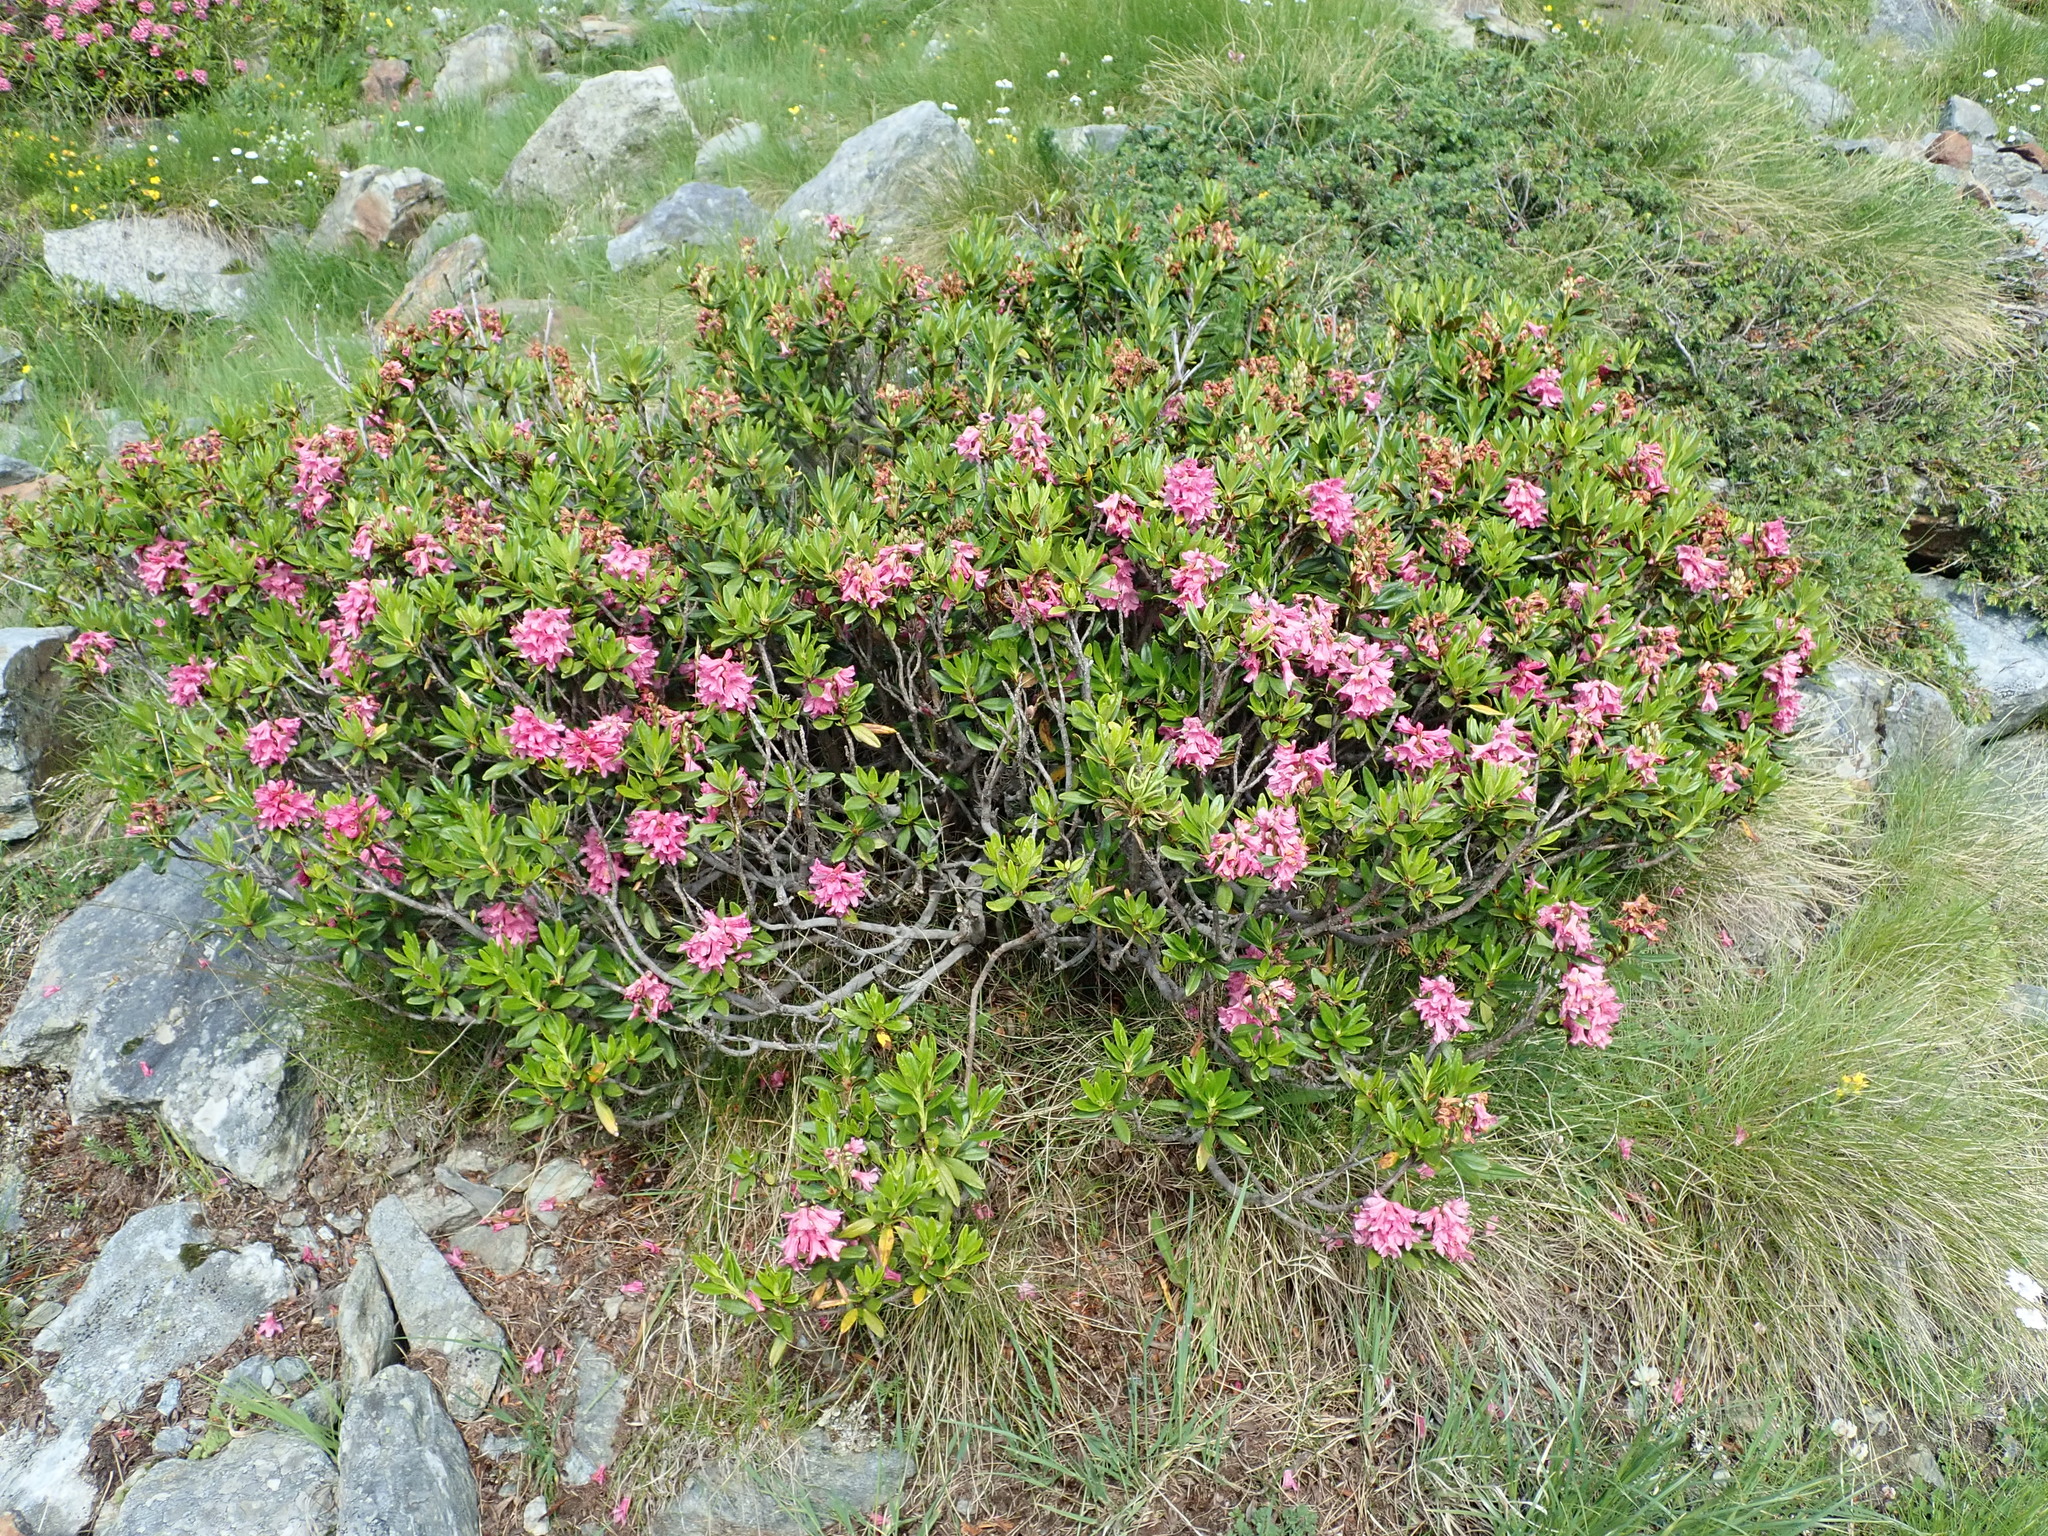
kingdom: Plantae
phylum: Tracheophyta
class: Magnoliopsida
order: Ericales
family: Ericaceae
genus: Rhododendron
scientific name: Rhododendron ferrugineum
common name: Alpenrose
